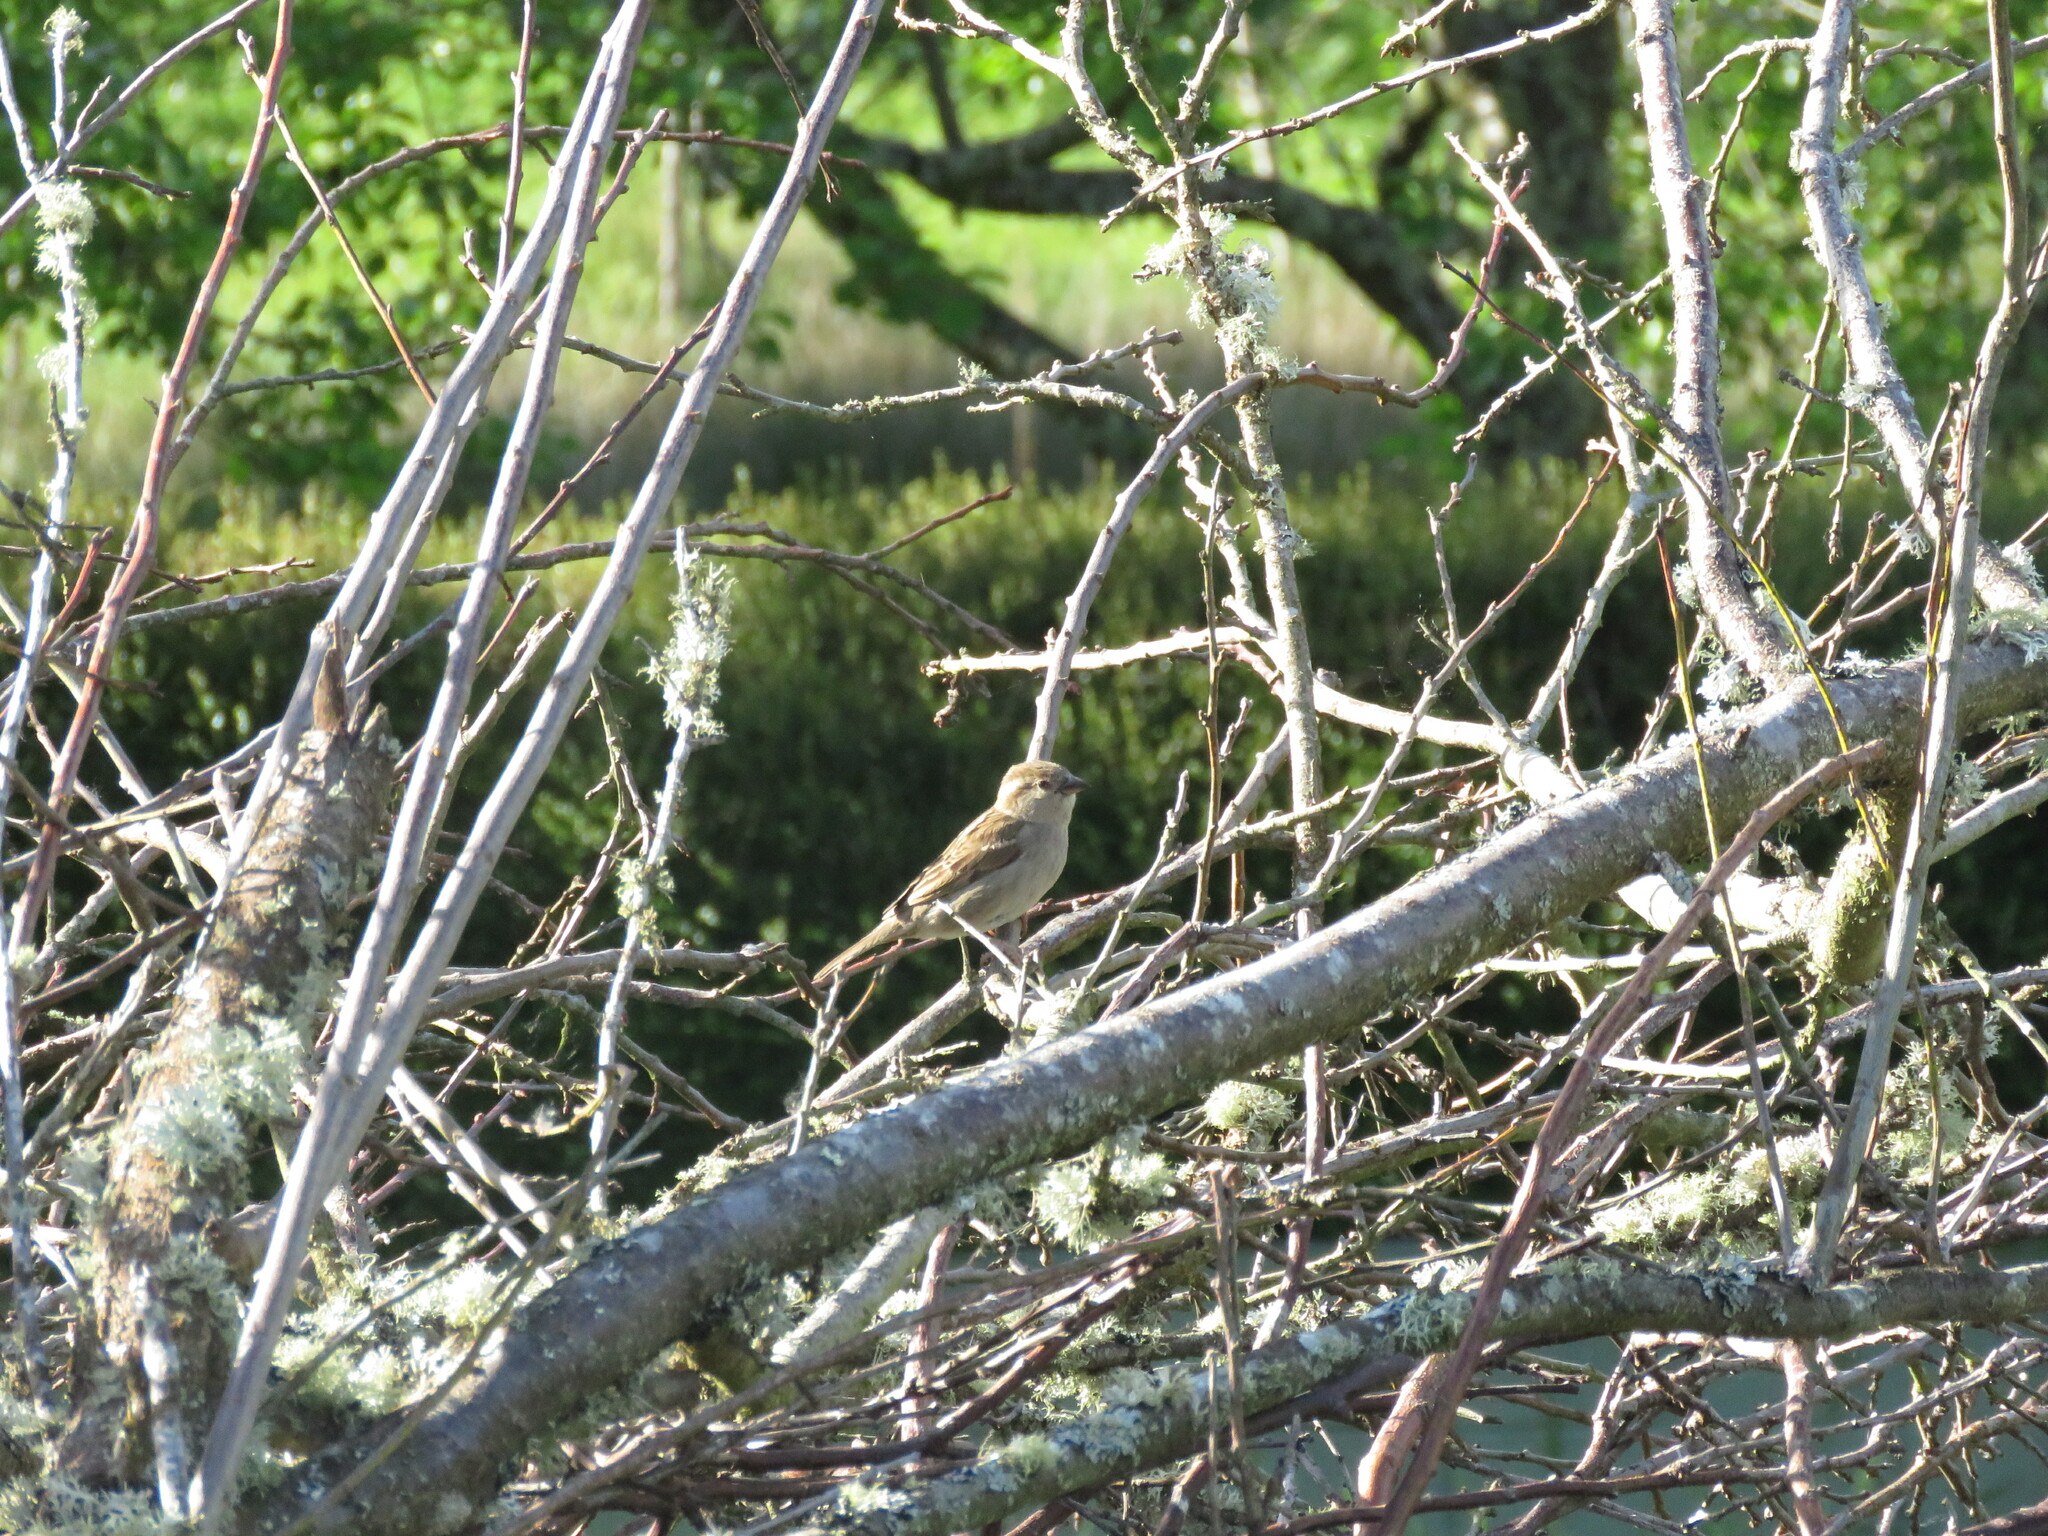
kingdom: Animalia
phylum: Chordata
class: Aves
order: Passeriformes
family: Passeridae
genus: Passer
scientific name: Passer domesticus
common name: House sparrow
